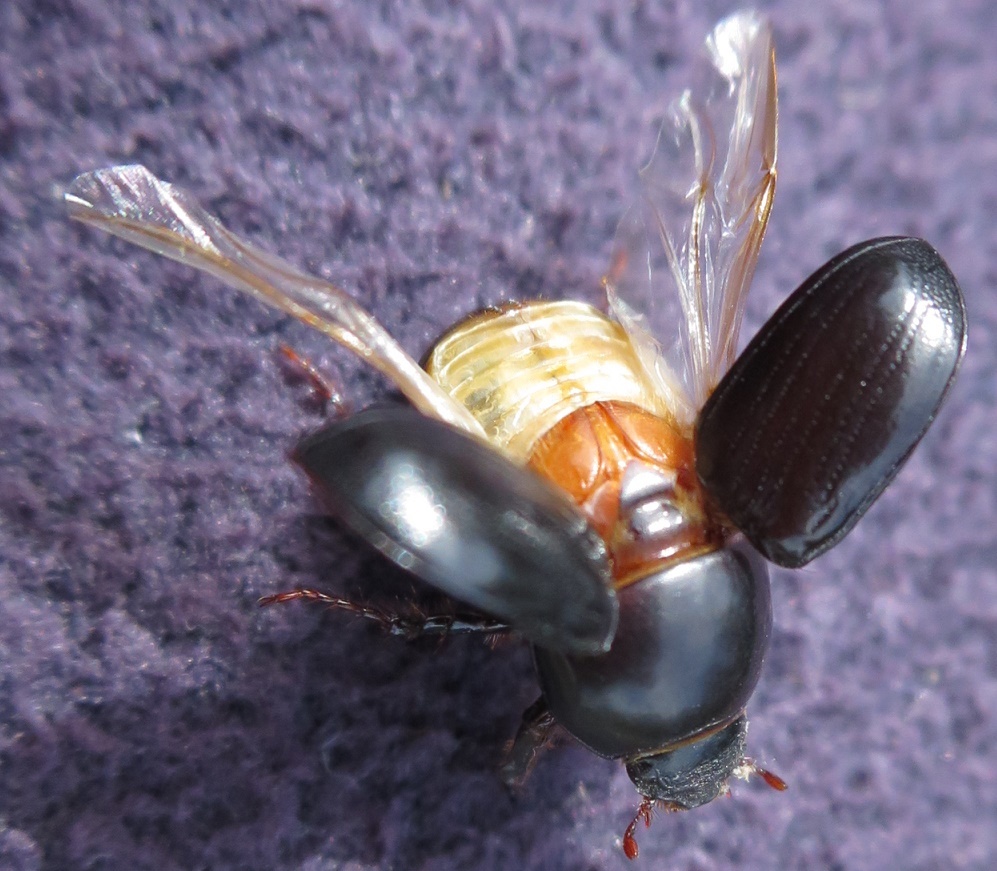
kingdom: Animalia
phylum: Arthropoda
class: Insecta
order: Coleoptera
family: Scarabaeidae
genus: Heteronychus
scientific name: Heteronychus arator
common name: African black beetle
